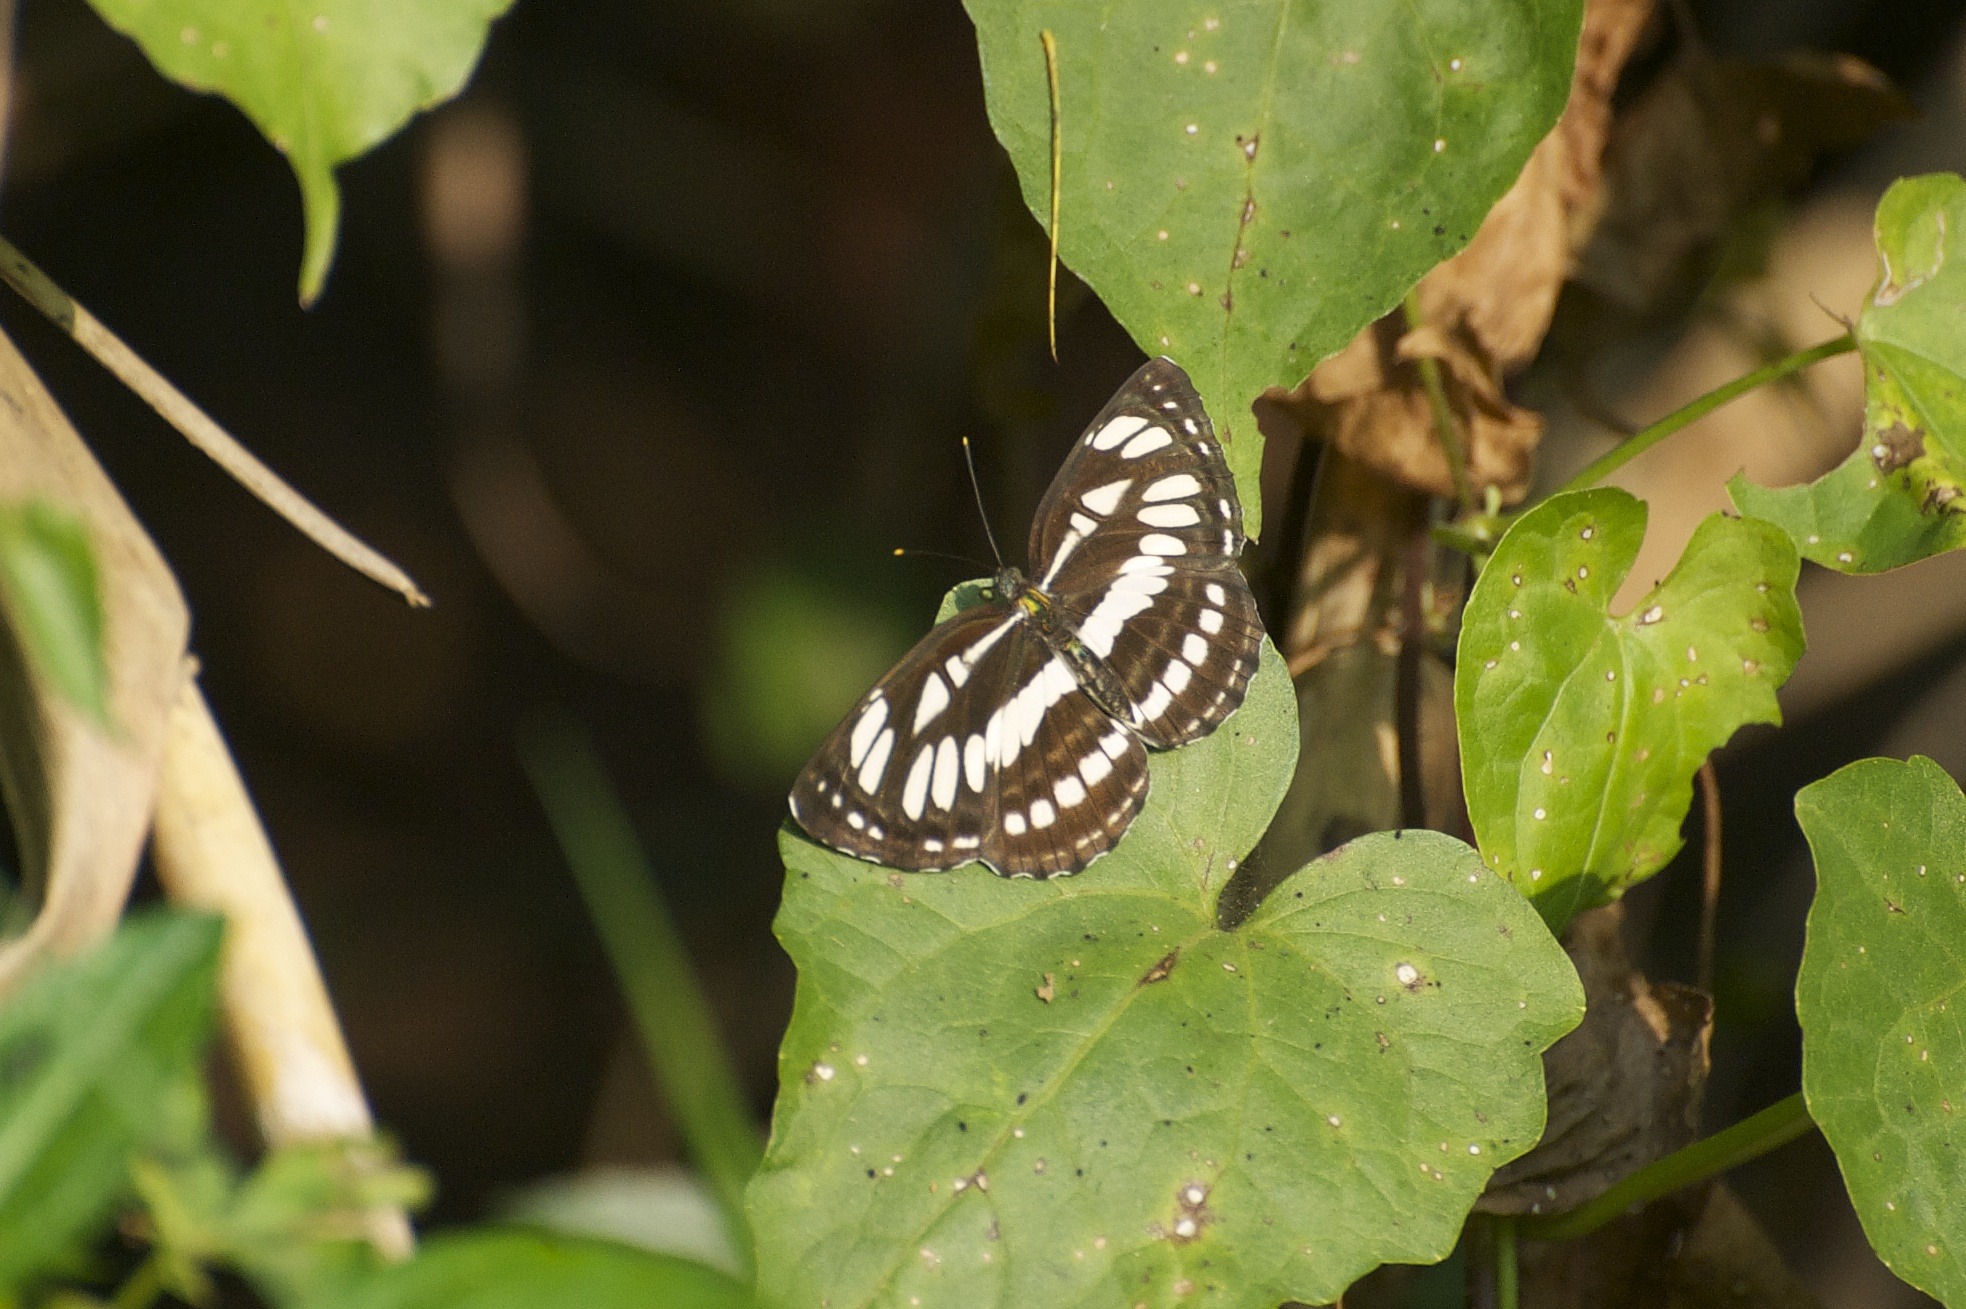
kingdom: Animalia
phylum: Arthropoda
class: Insecta
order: Lepidoptera
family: Nymphalidae
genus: Neptis
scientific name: Neptis hylas
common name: Common sailer
